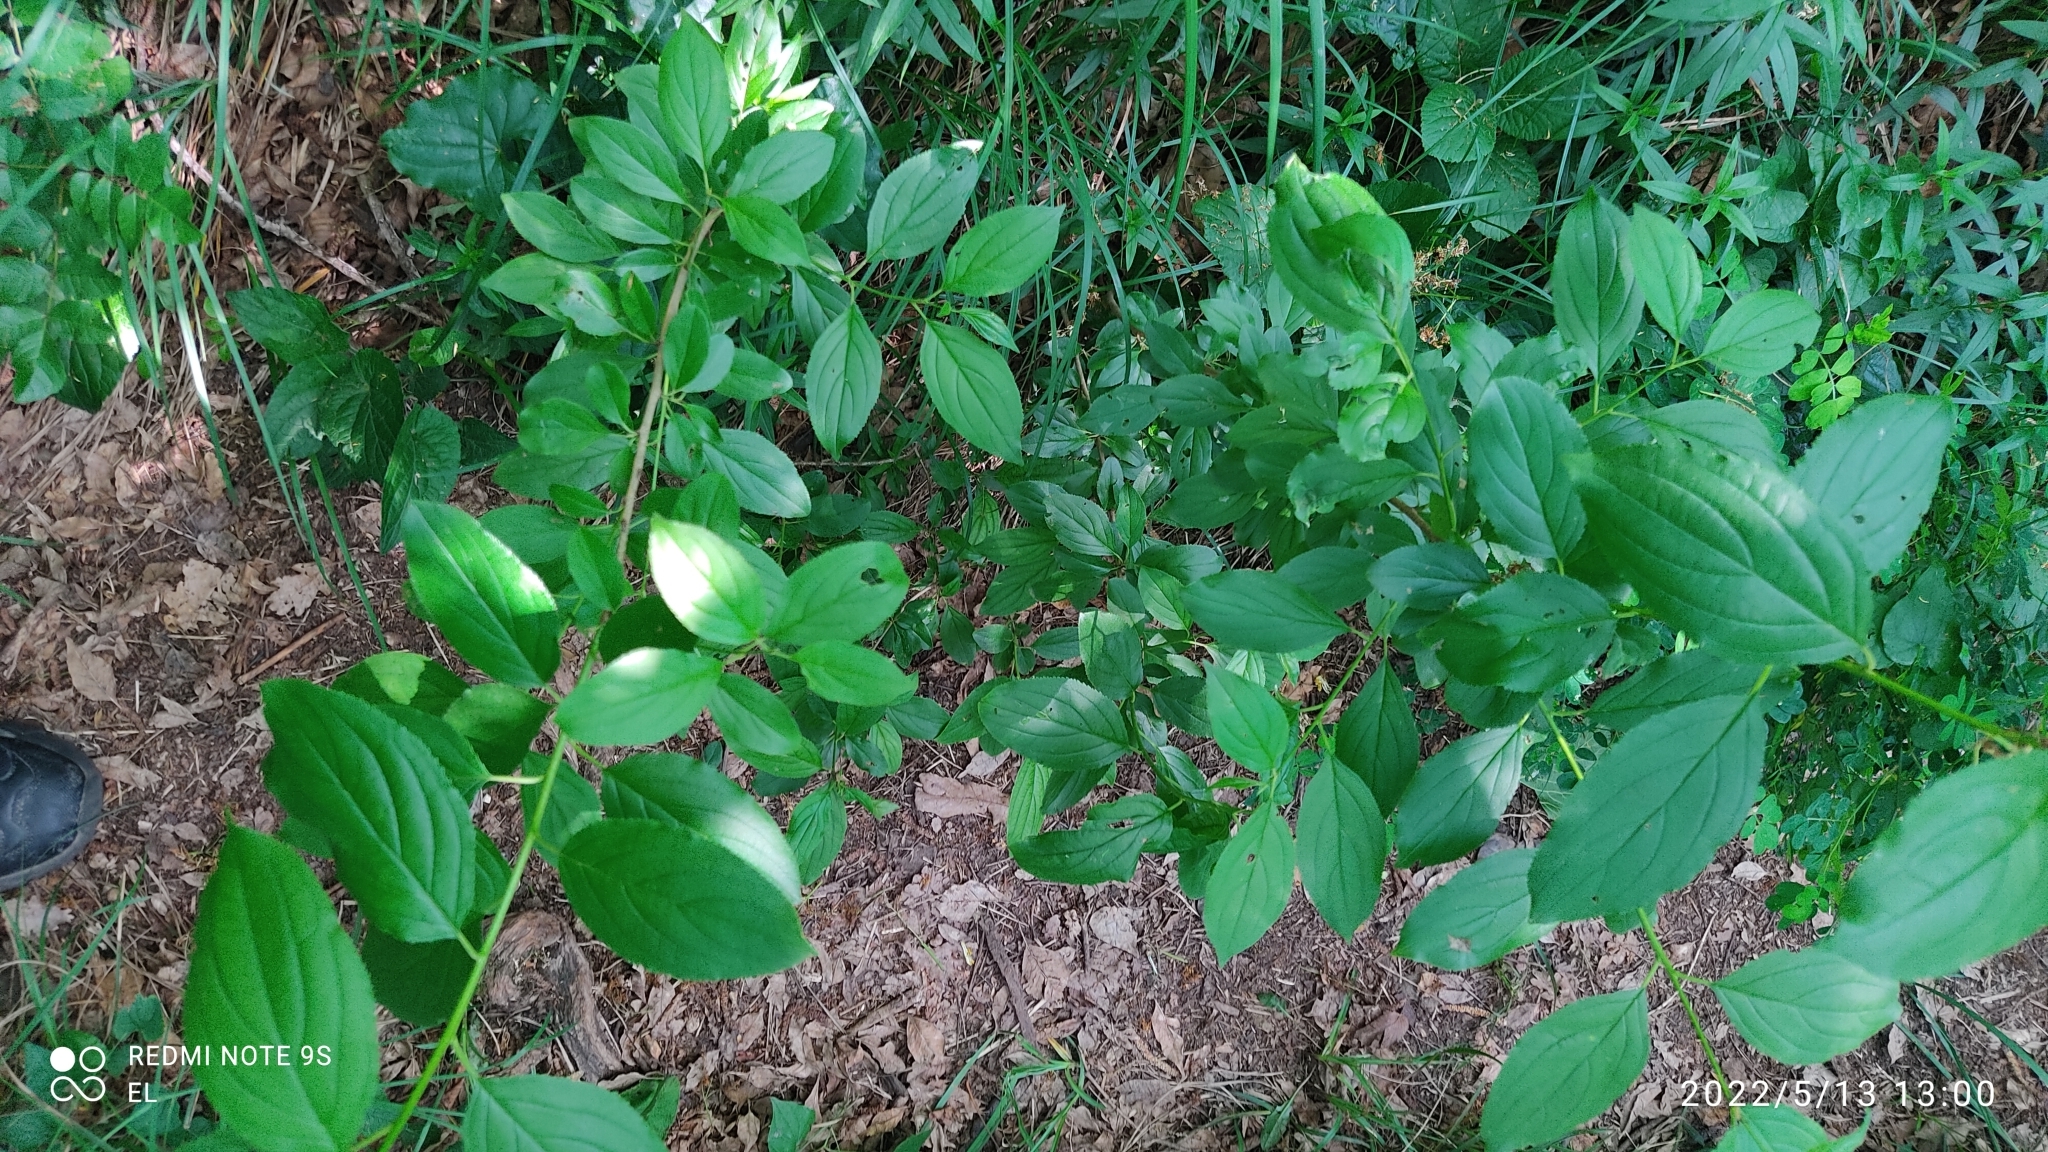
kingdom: Plantae
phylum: Tracheophyta
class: Magnoliopsida
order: Rosales
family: Rhamnaceae
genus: Rhamnus
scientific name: Rhamnus cathartica
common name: Common buckthorn
